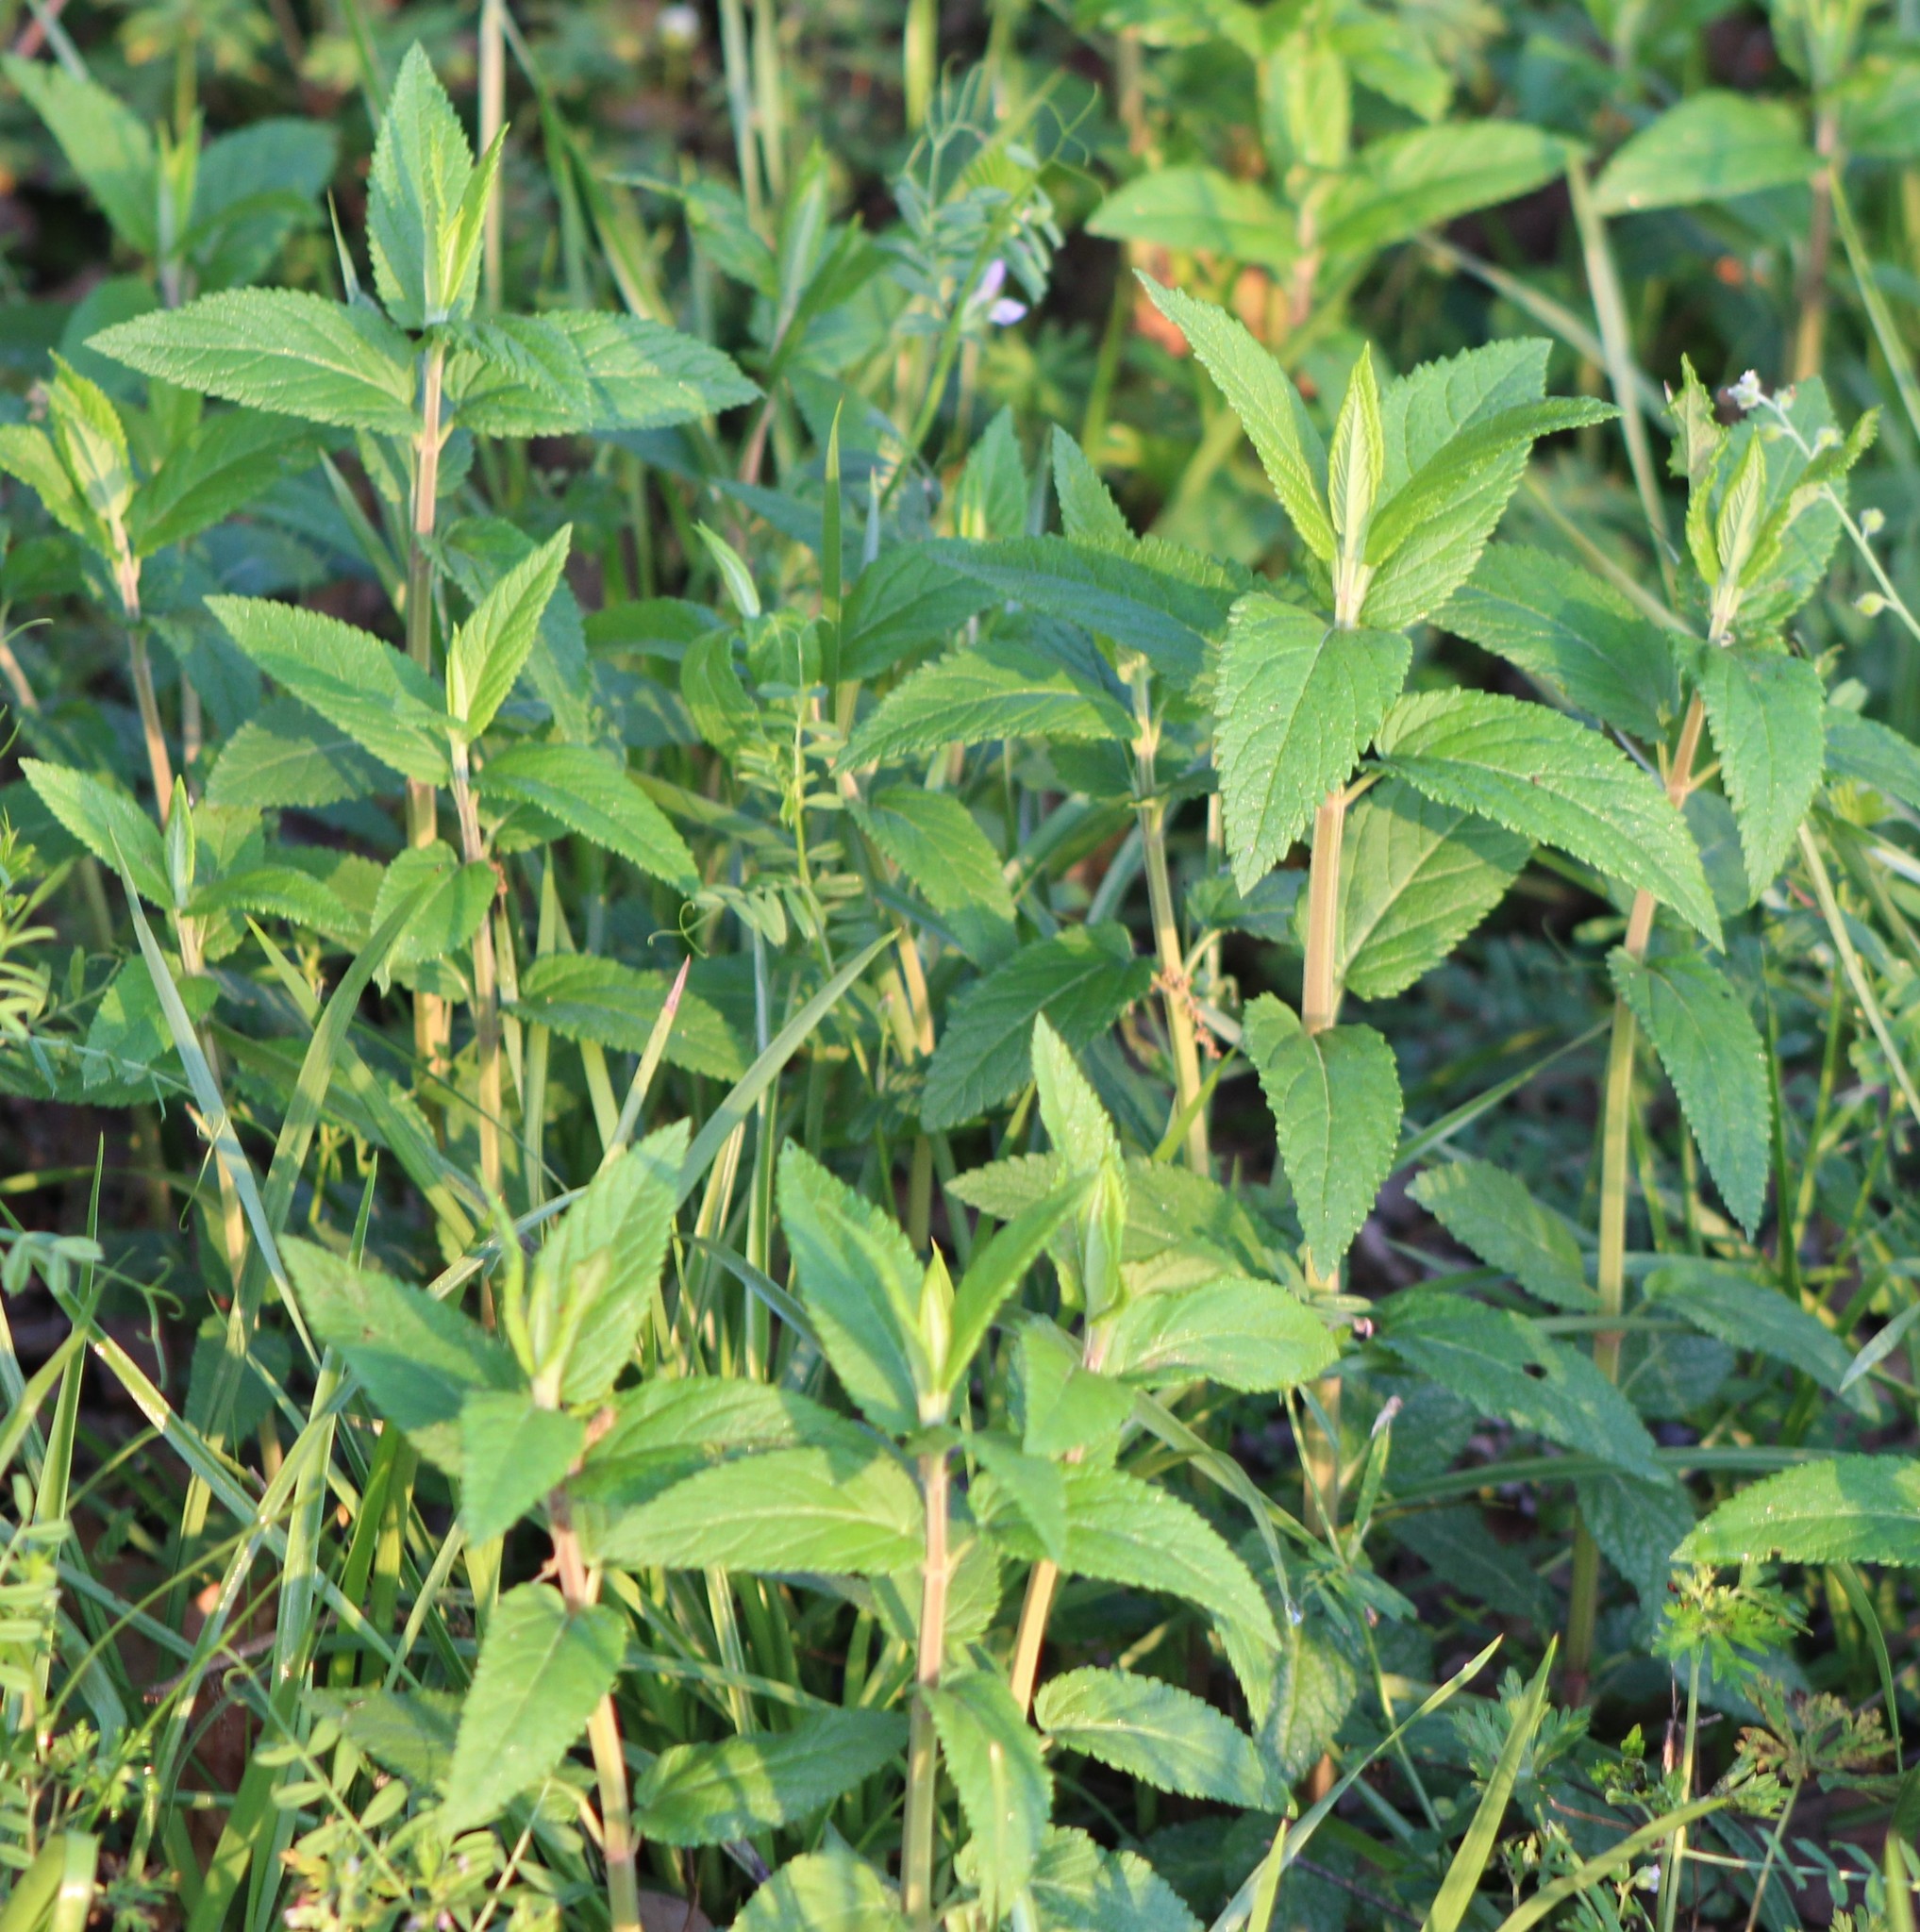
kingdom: Plantae
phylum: Tracheophyta
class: Magnoliopsida
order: Lamiales
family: Lamiaceae
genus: Teucrium
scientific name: Teucrium canadense
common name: American germander
